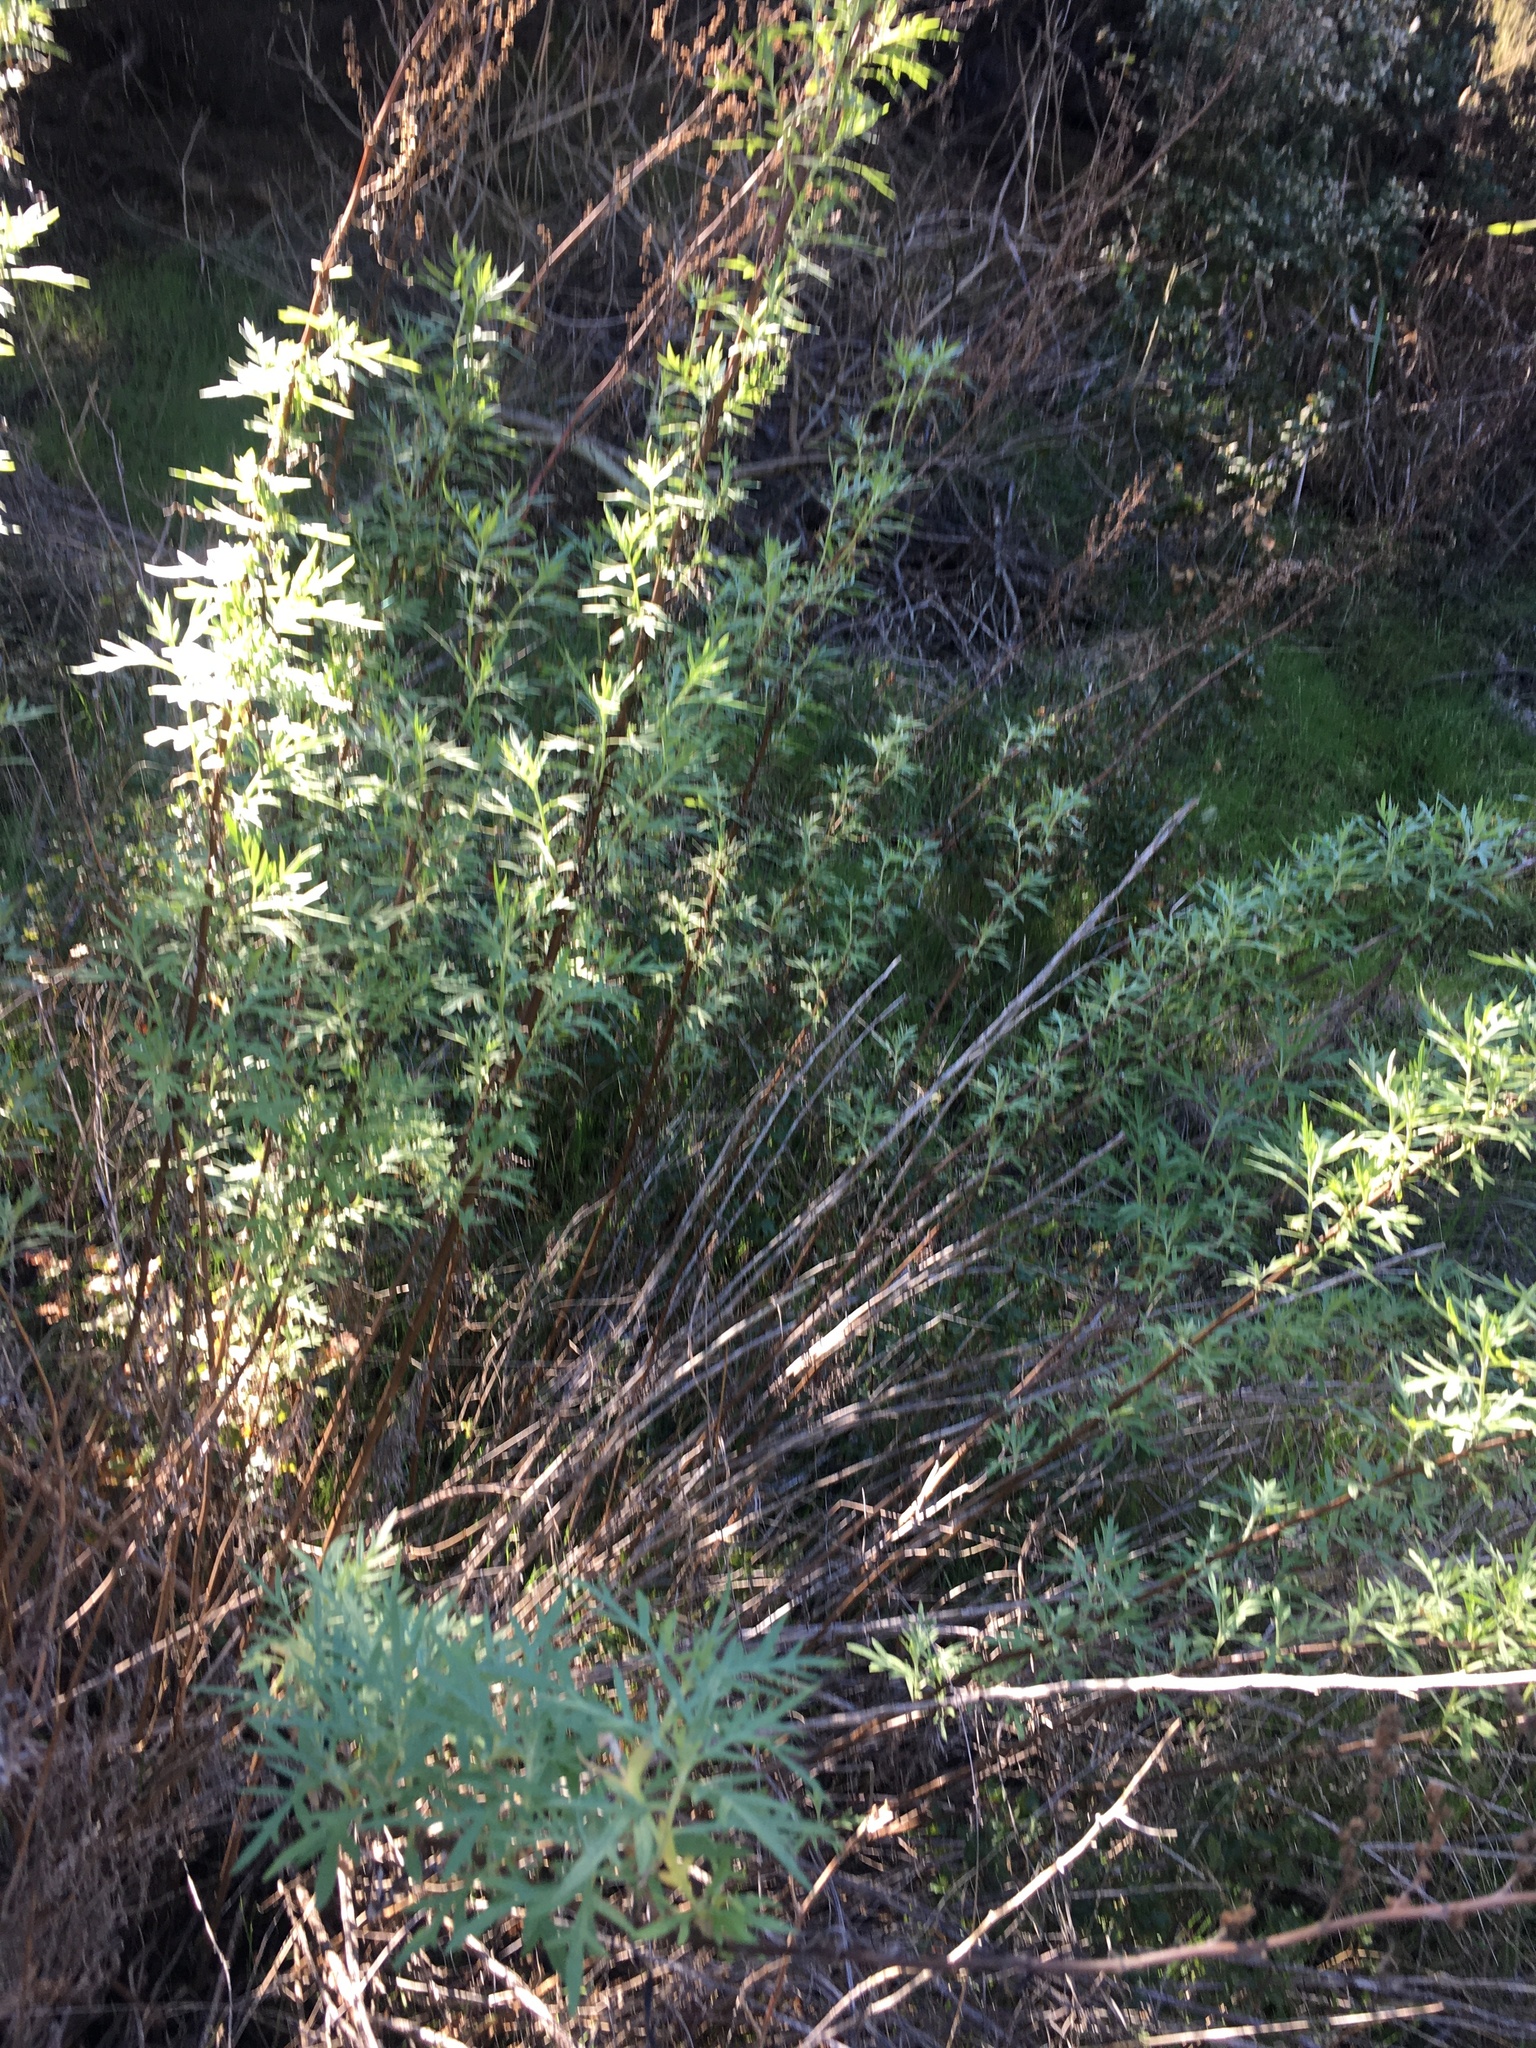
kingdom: Plantae
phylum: Tracheophyta
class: Magnoliopsida
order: Asterales
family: Asteraceae
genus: Artemisia
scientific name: Artemisia palmeri
